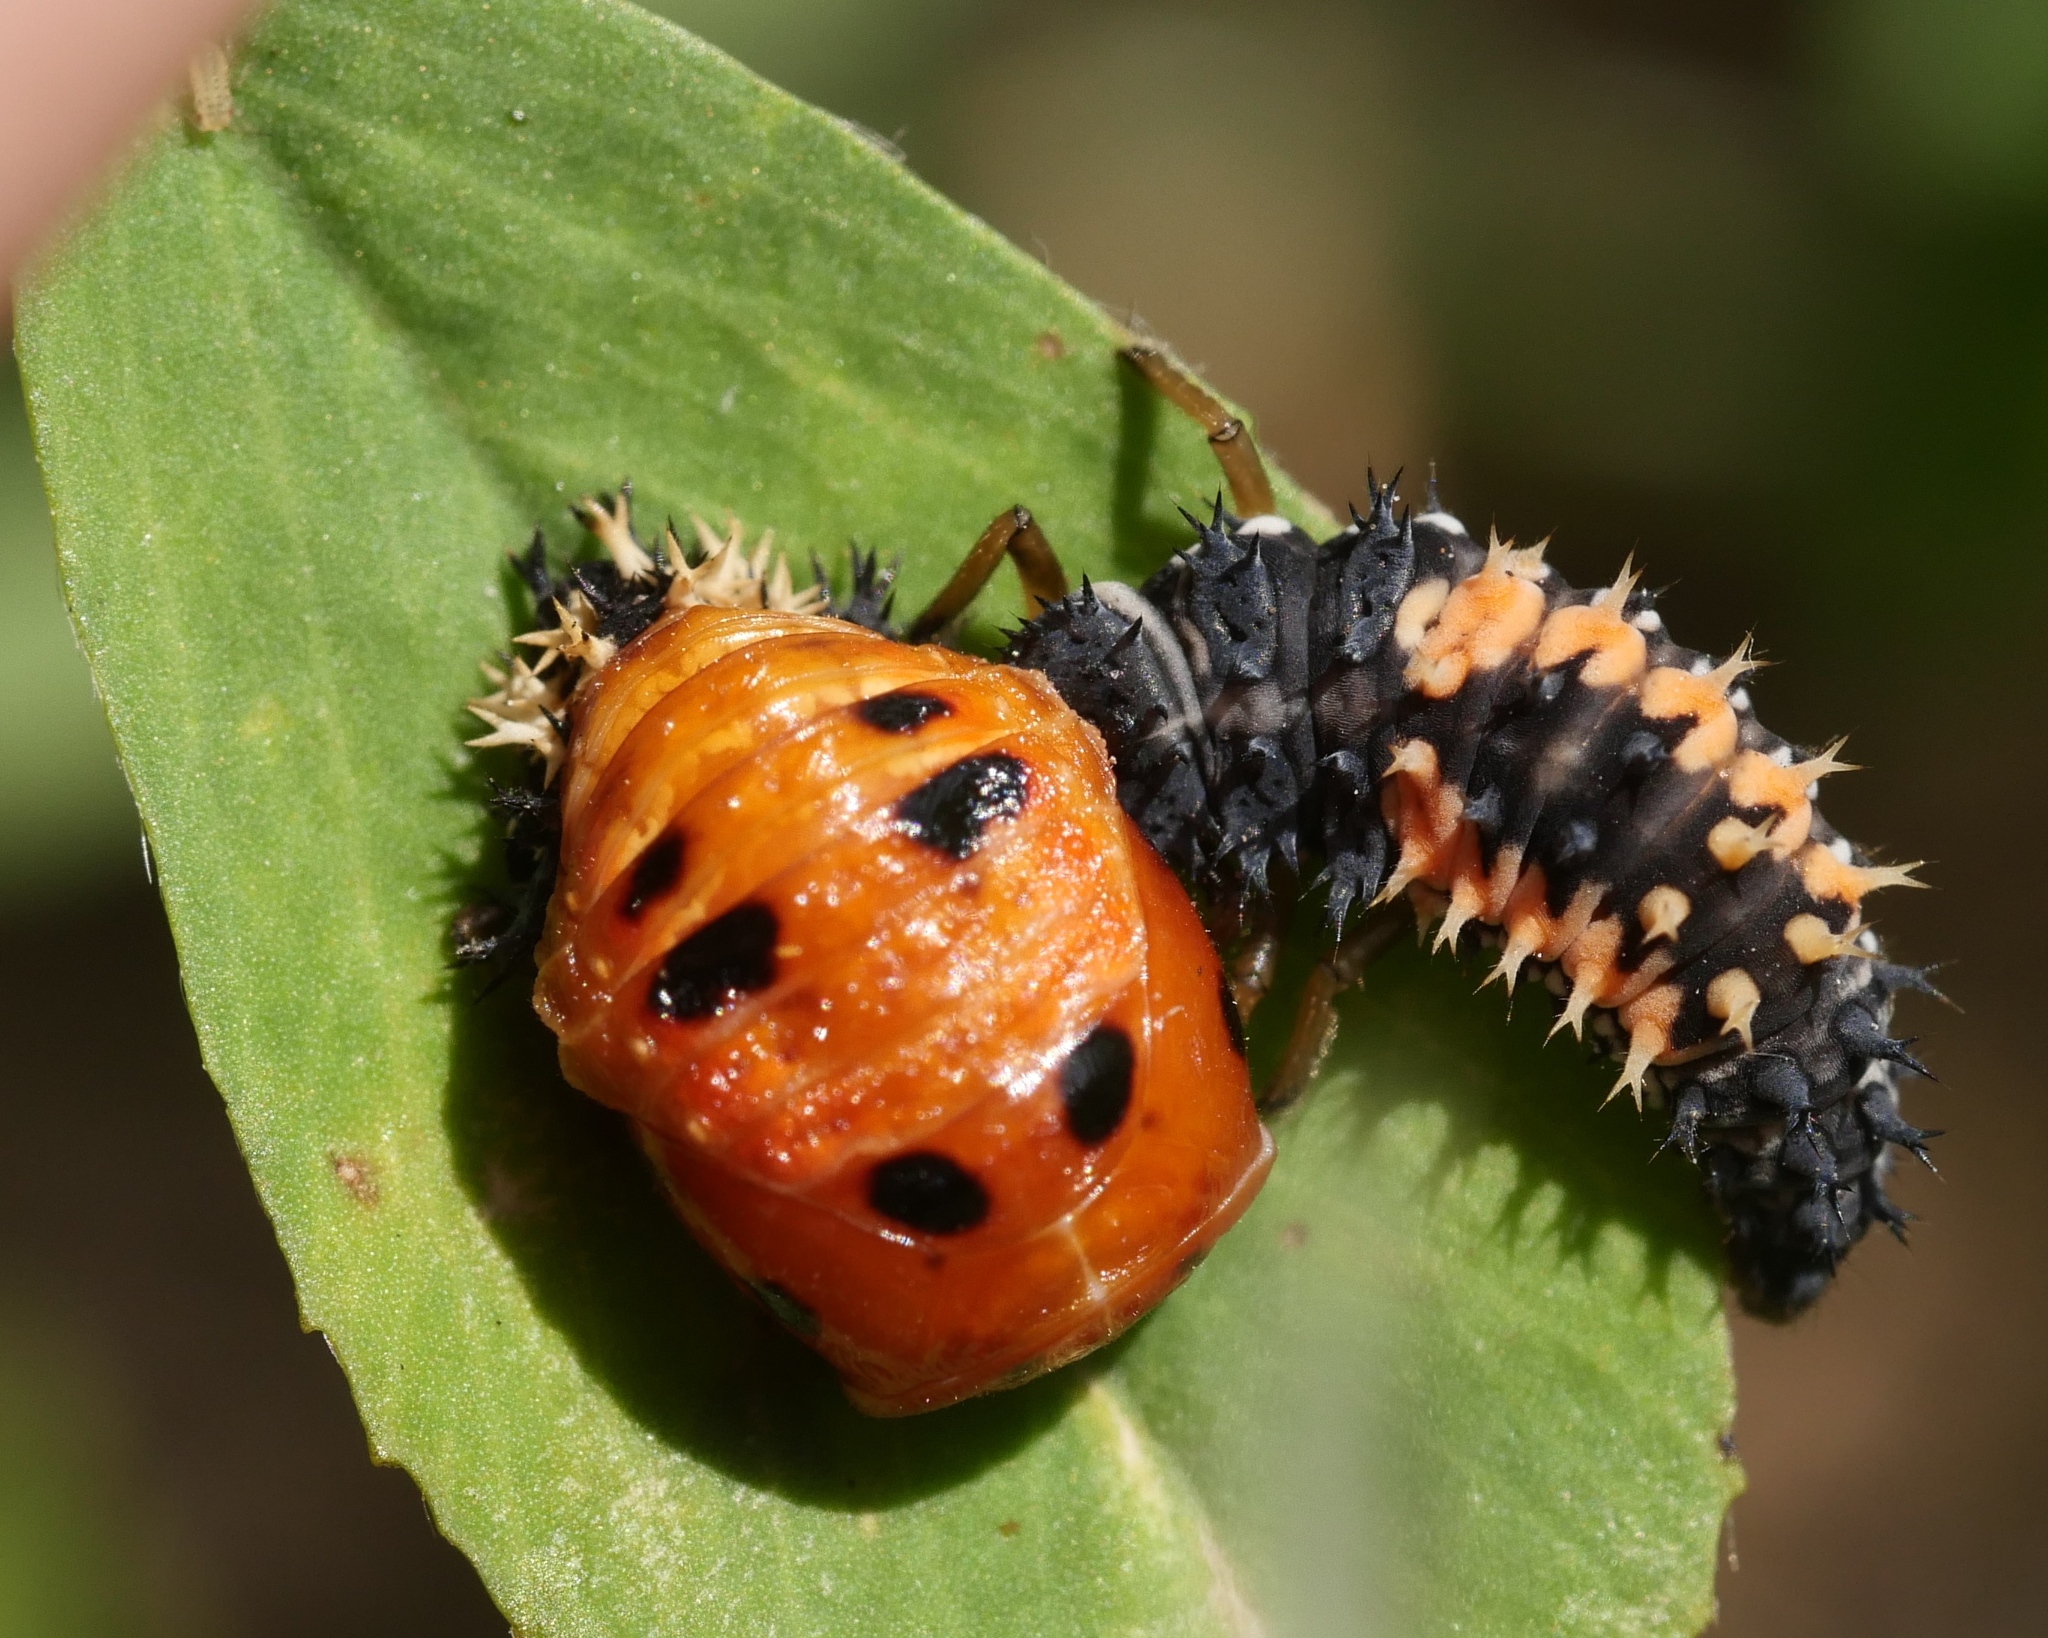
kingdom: Animalia
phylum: Arthropoda
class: Insecta
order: Coleoptera
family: Coccinellidae
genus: Harmonia
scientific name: Harmonia axyridis
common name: Harlequin ladybird
